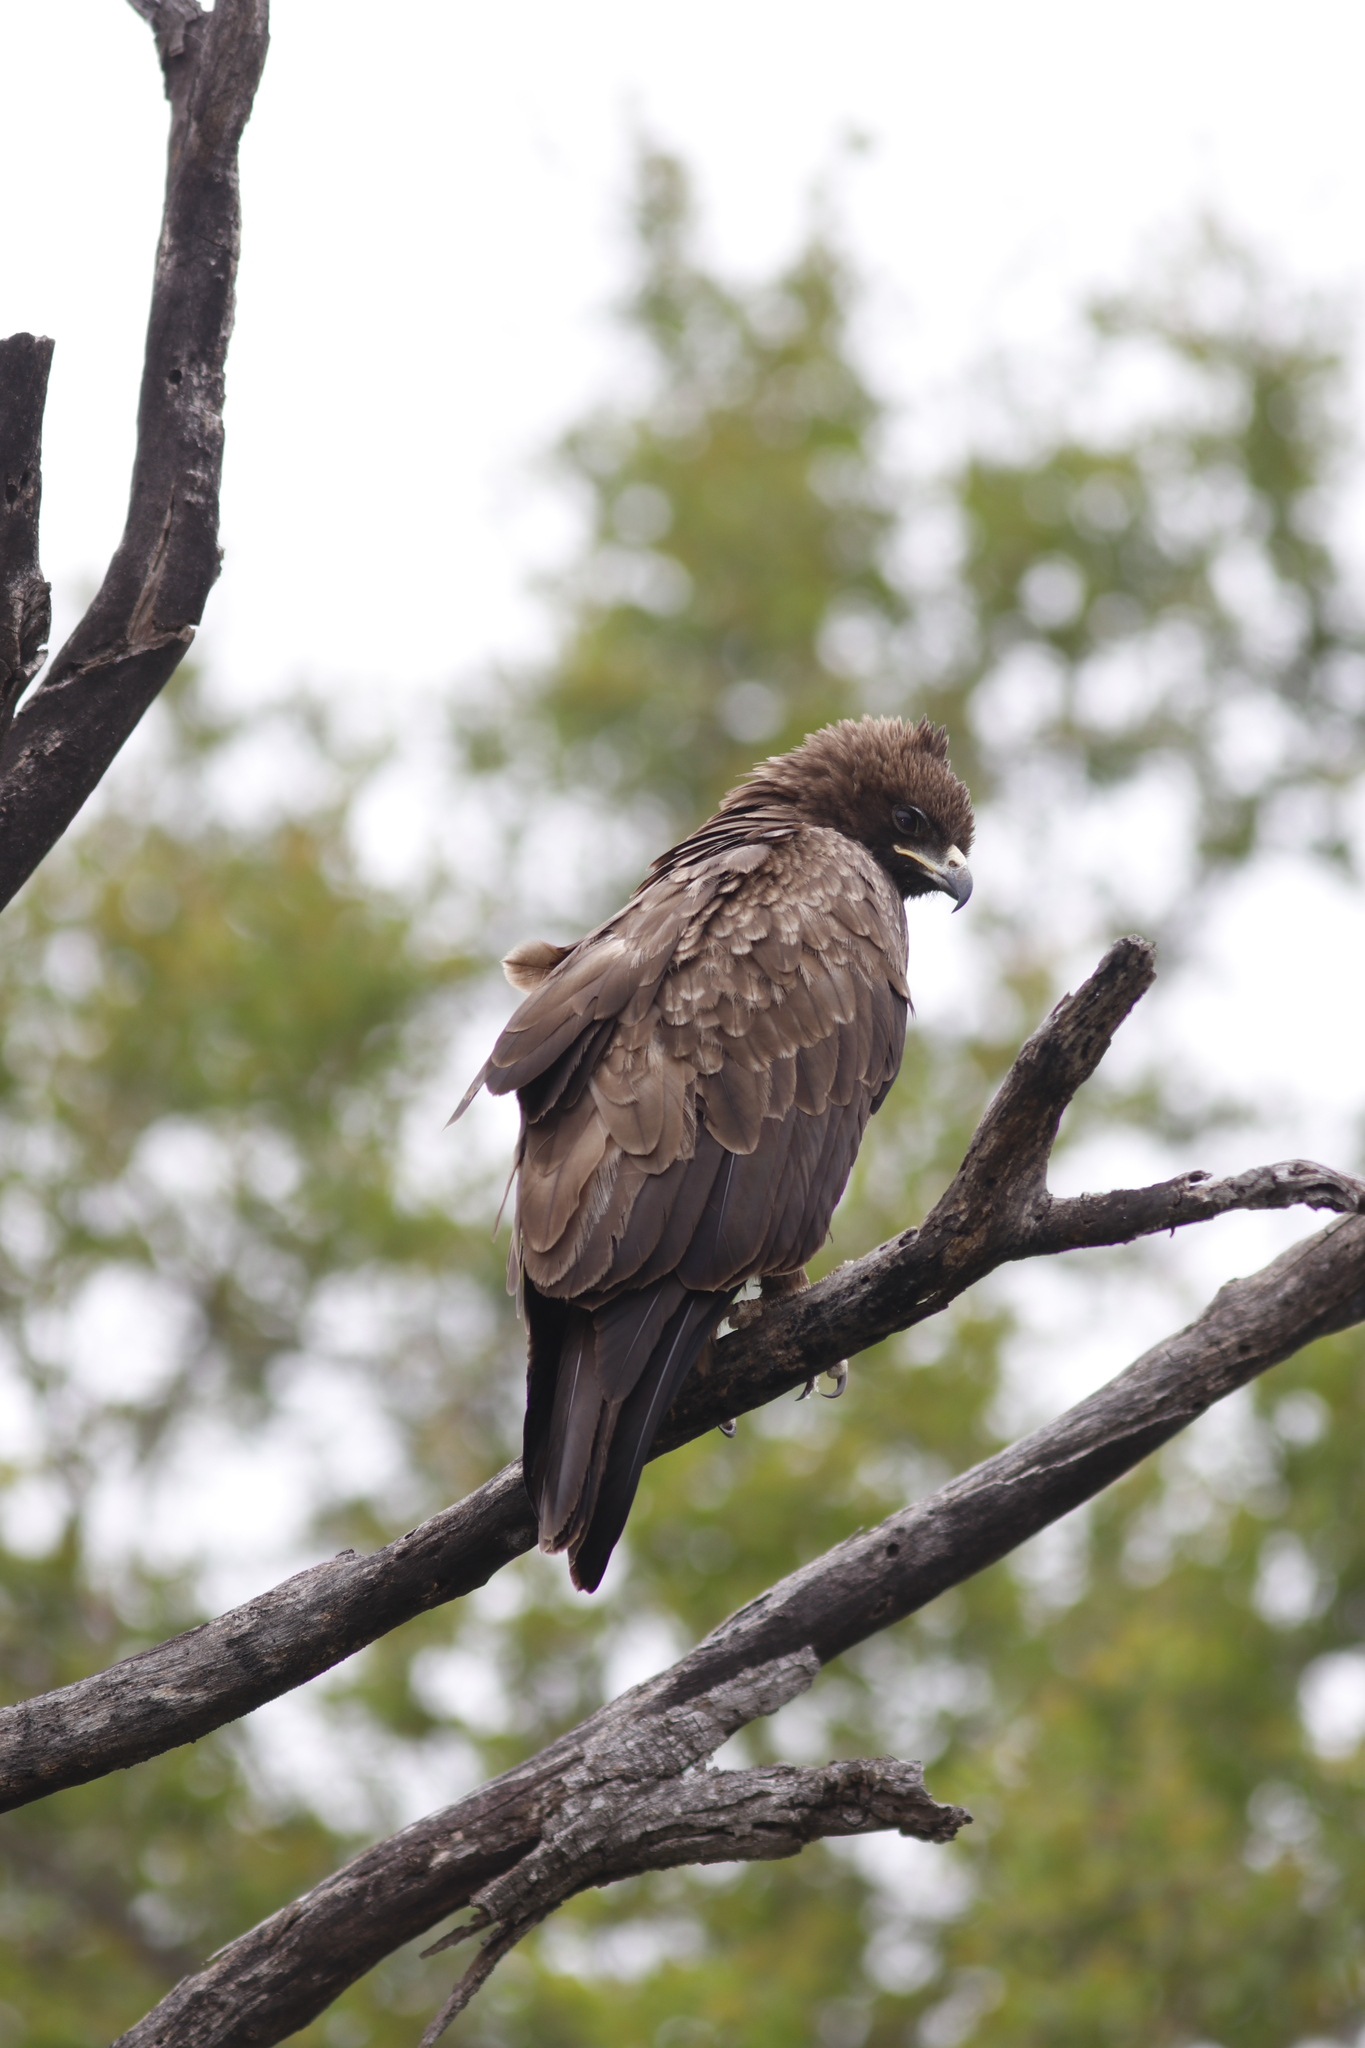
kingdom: Animalia
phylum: Chordata
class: Aves
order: Accipitriformes
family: Accipitridae
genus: Hieraaetus
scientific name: Hieraaetus wahlbergi
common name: Wahlberg's eagle
